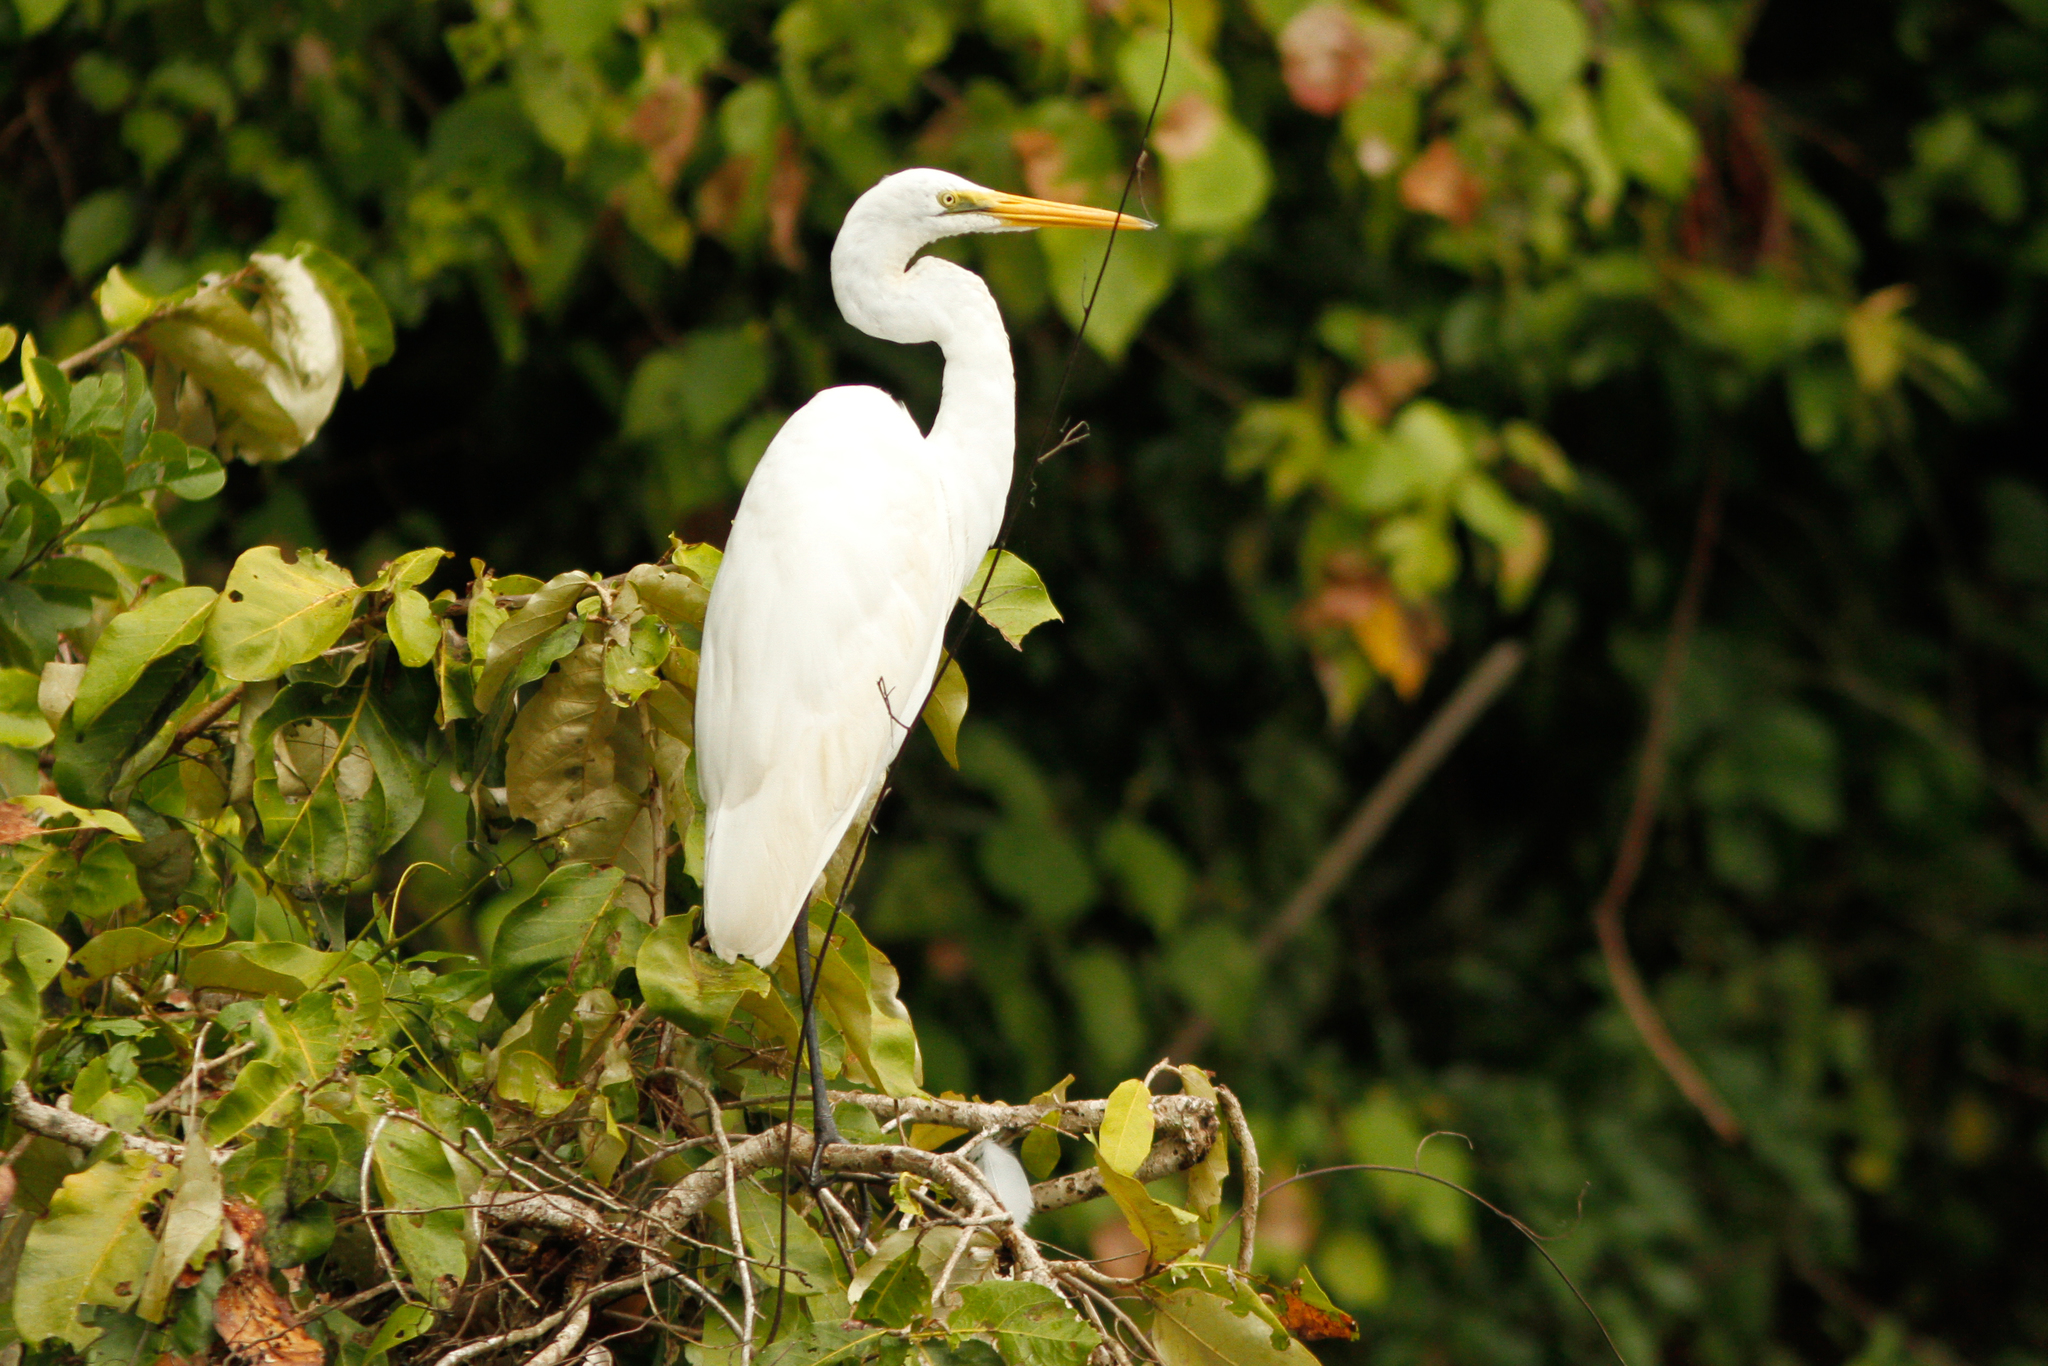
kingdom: Animalia
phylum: Chordata
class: Aves
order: Pelecaniformes
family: Ardeidae
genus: Ardea
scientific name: Ardea alba
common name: Great egret
